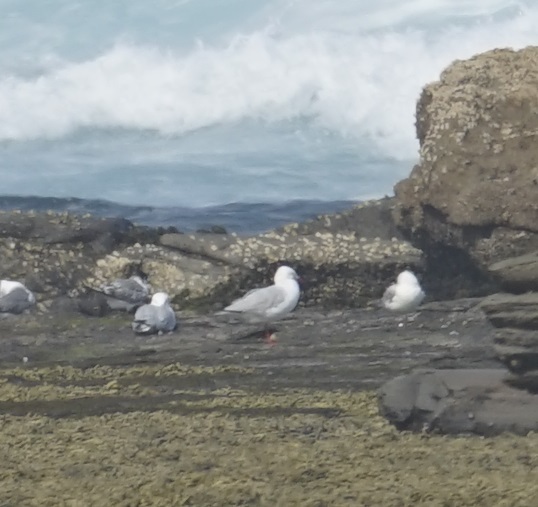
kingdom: Animalia
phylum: Chordata
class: Aves
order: Charadriiformes
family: Laridae
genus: Chroicocephalus
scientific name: Chroicocephalus novaehollandiae
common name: Silver gull
